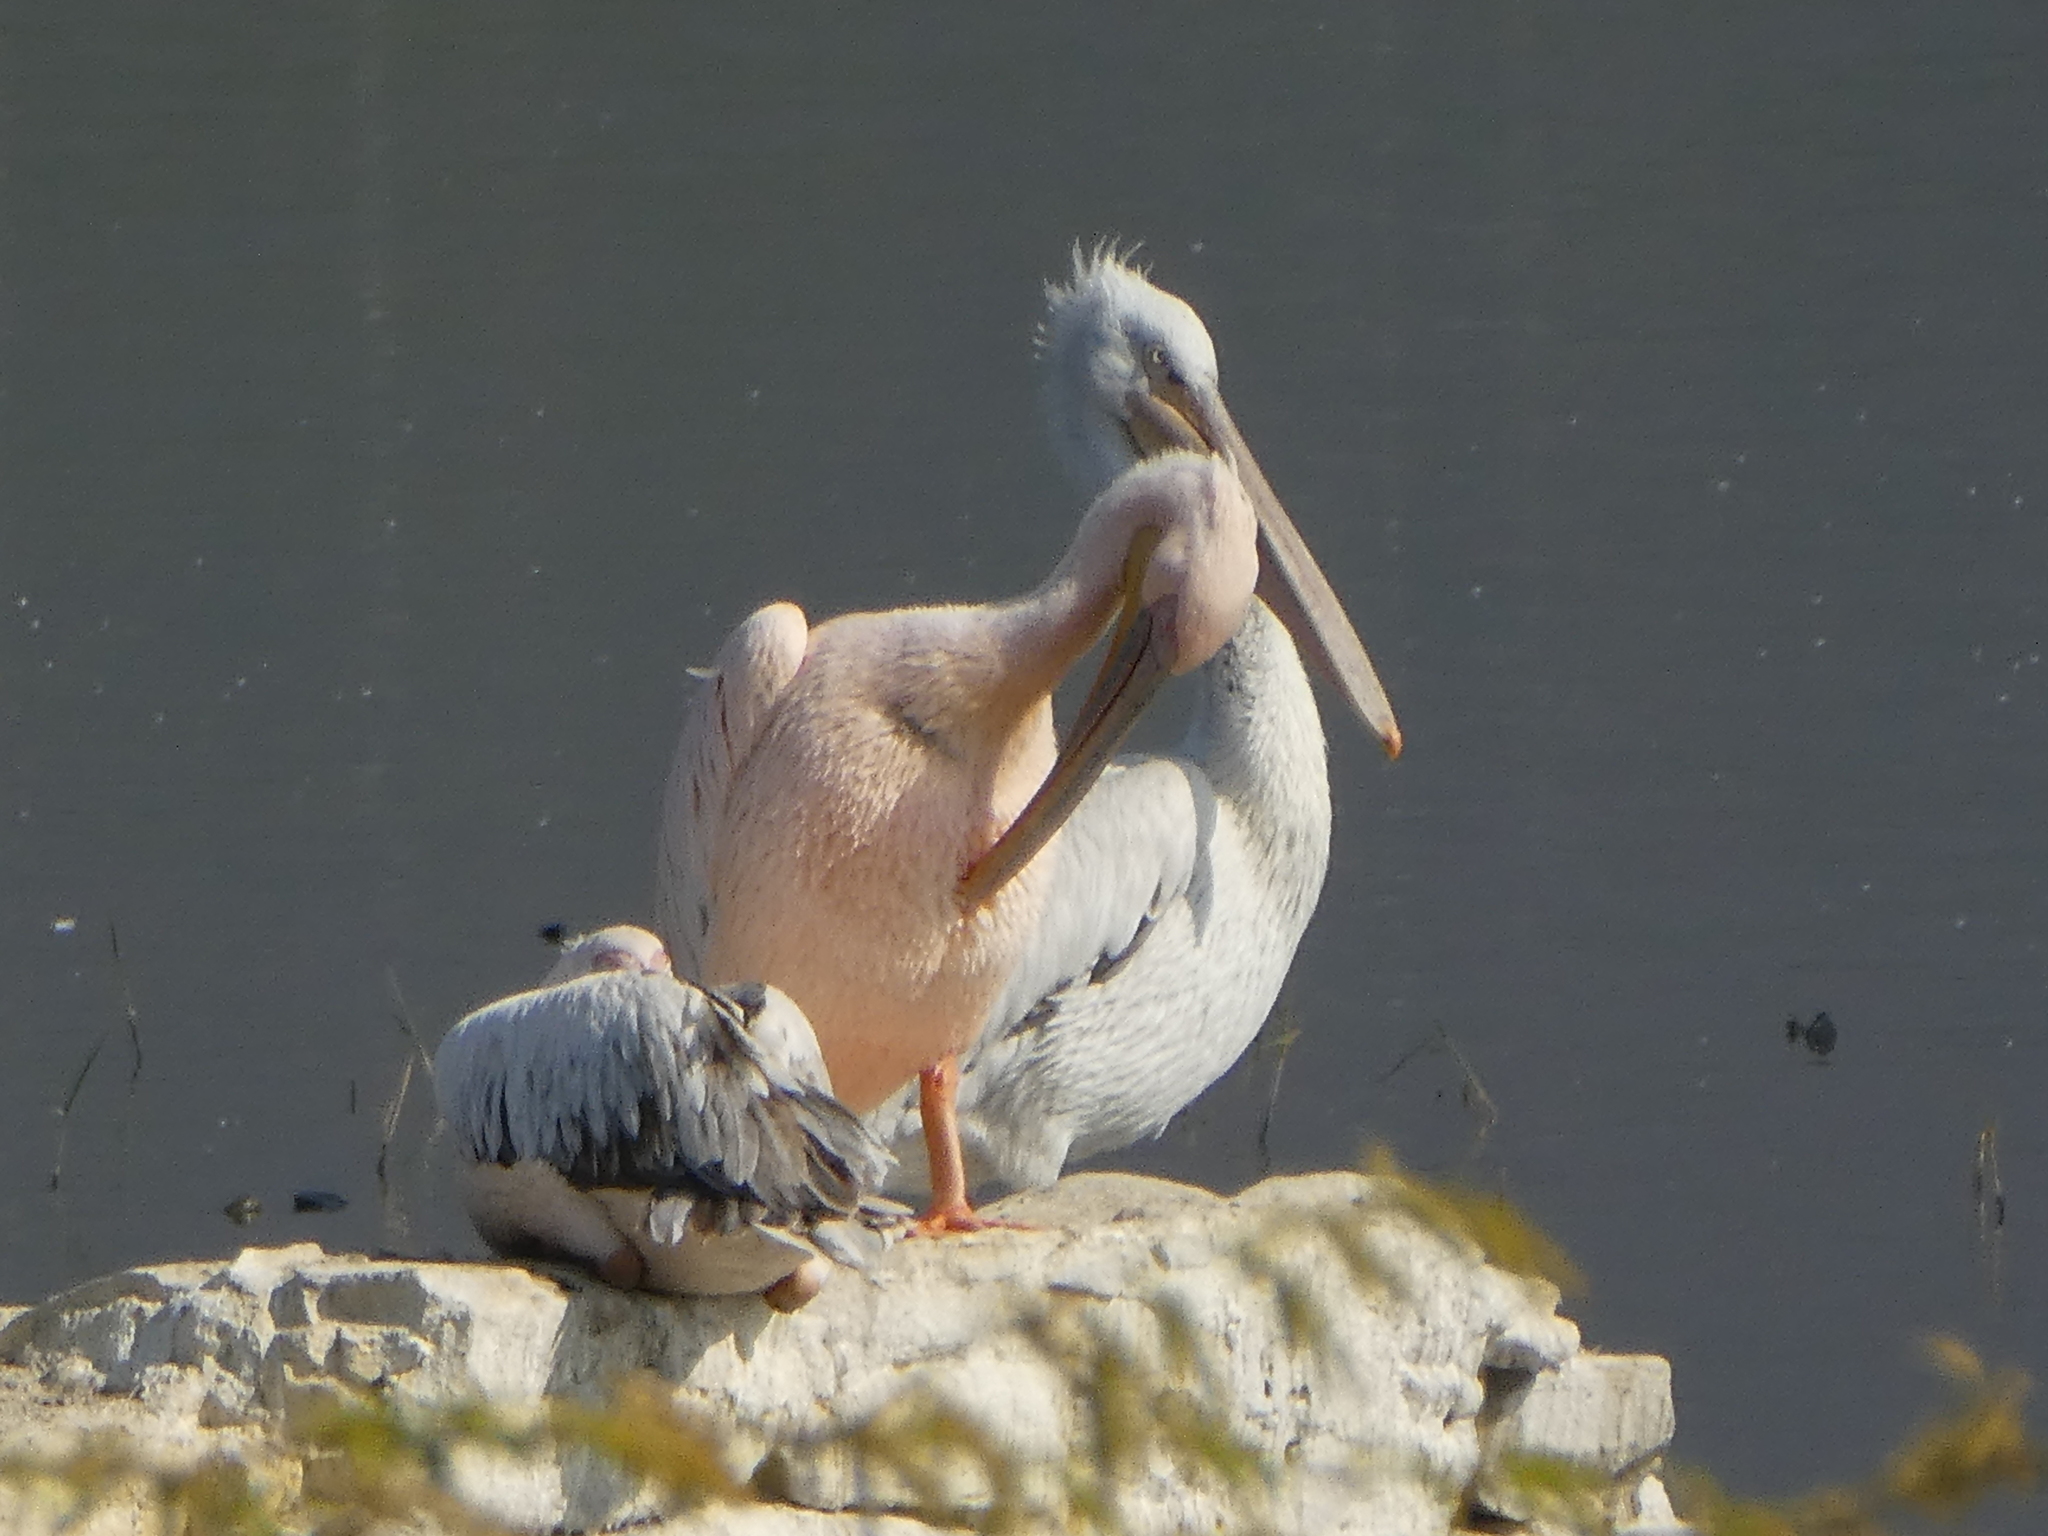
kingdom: Animalia
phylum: Chordata
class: Aves
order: Pelecaniformes
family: Pelecanidae
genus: Pelecanus
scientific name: Pelecanus onocrotalus
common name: Great white pelican
